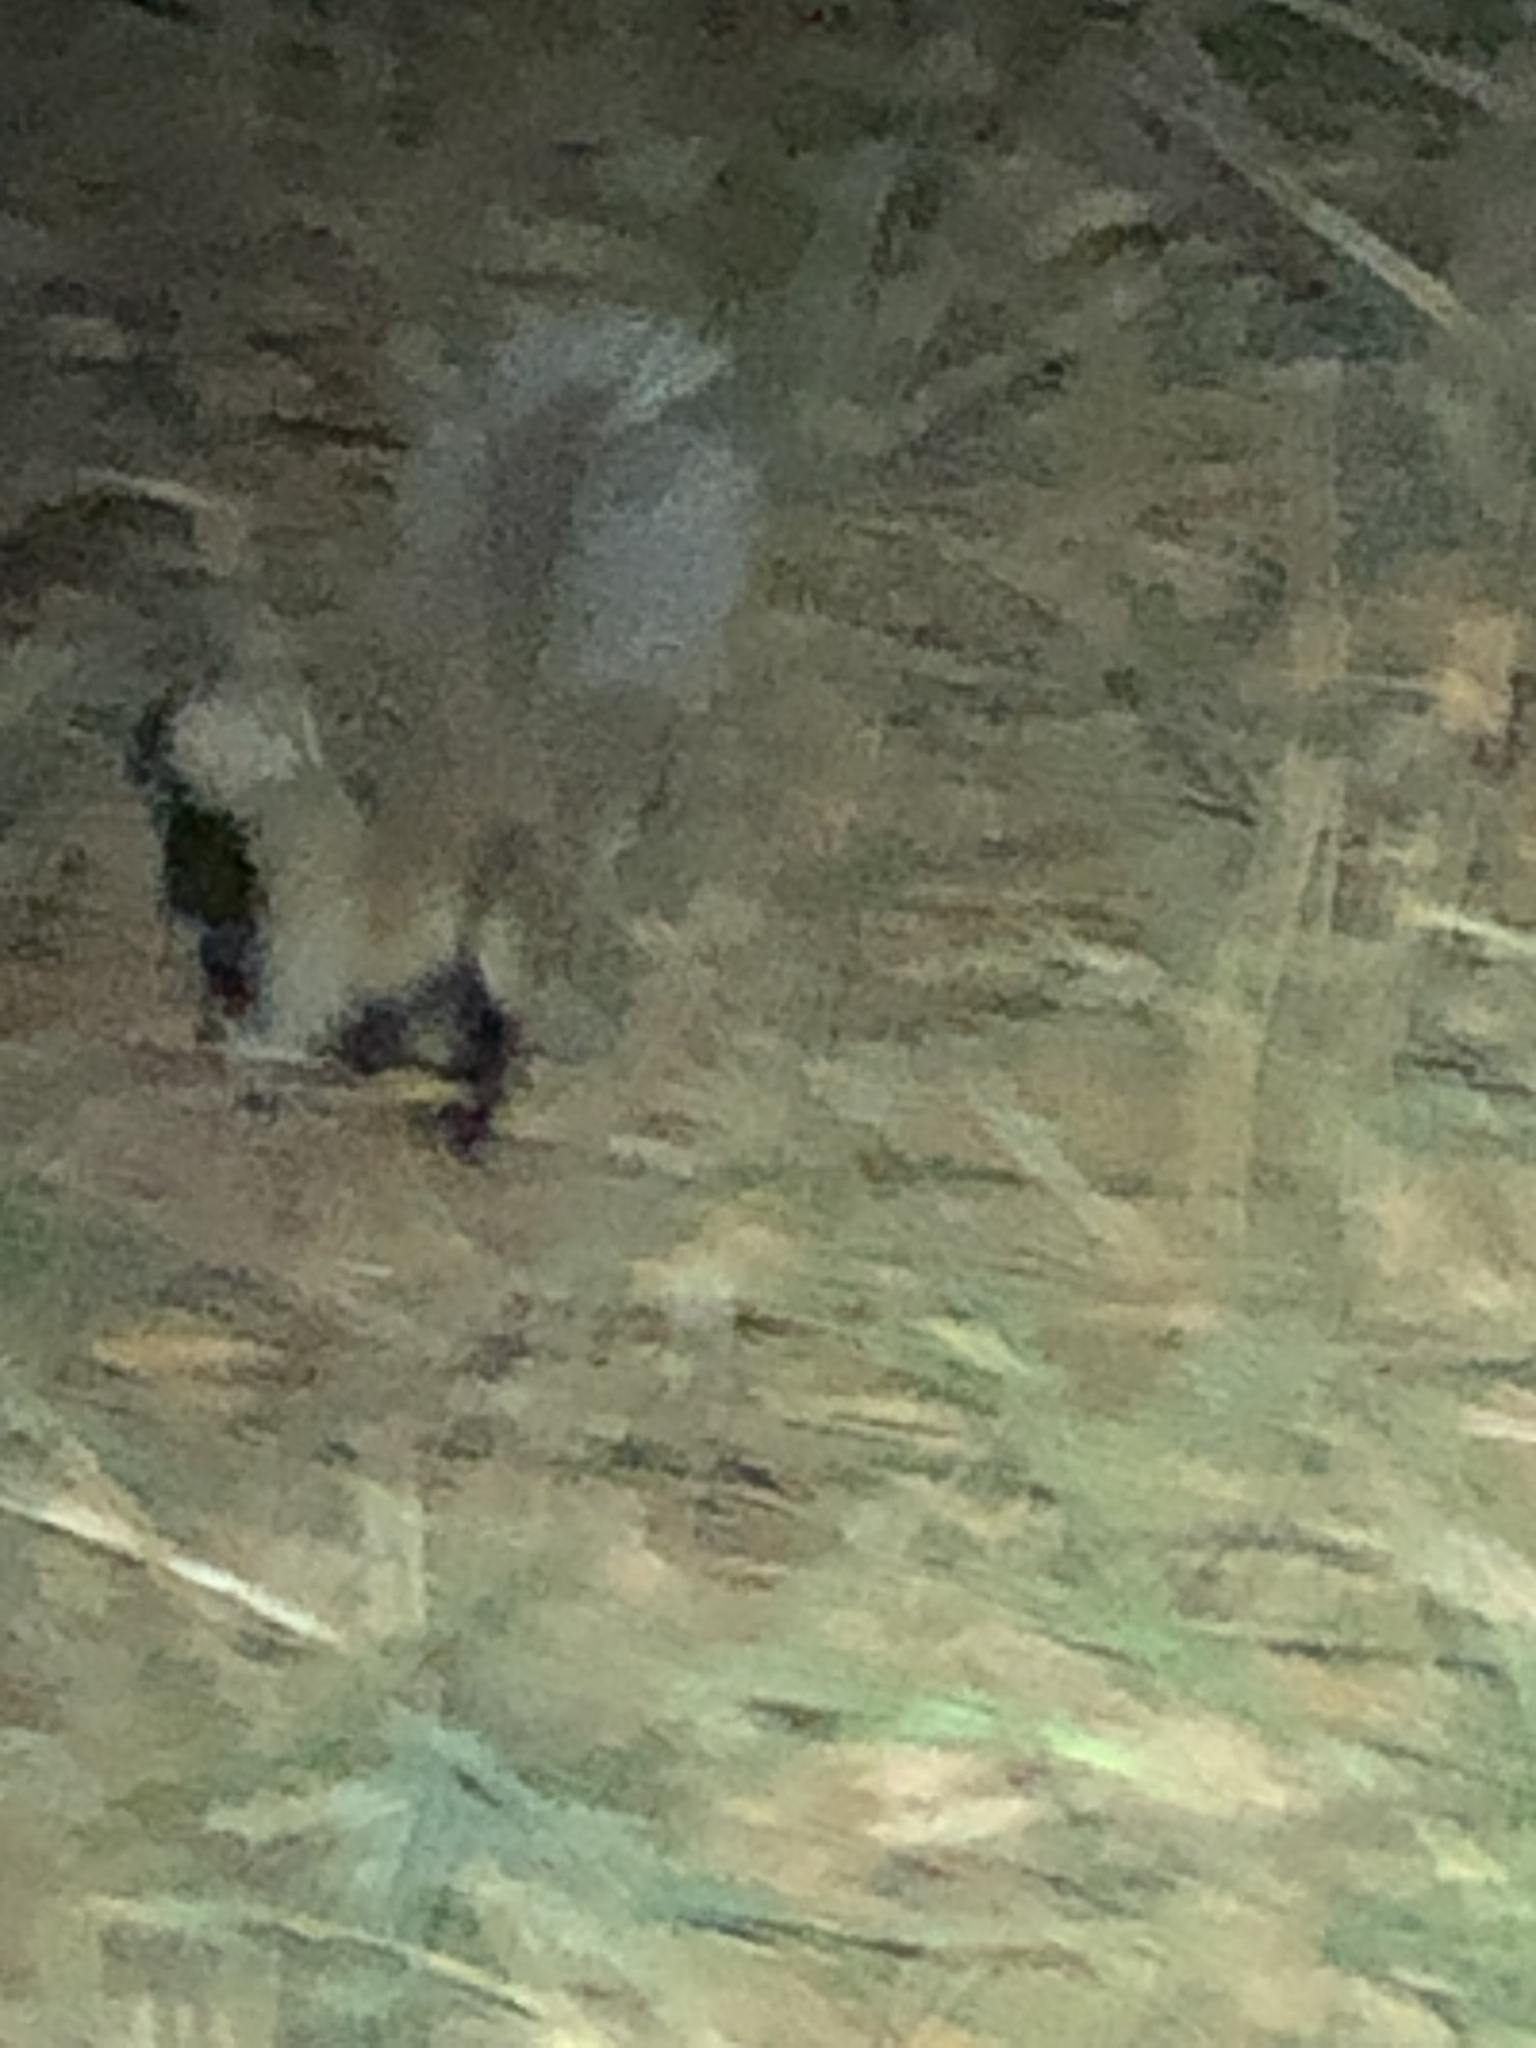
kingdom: Animalia
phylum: Chordata
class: Mammalia
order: Carnivora
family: Mephitidae
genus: Mephitis
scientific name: Mephitis mephitis
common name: Striped skunk
